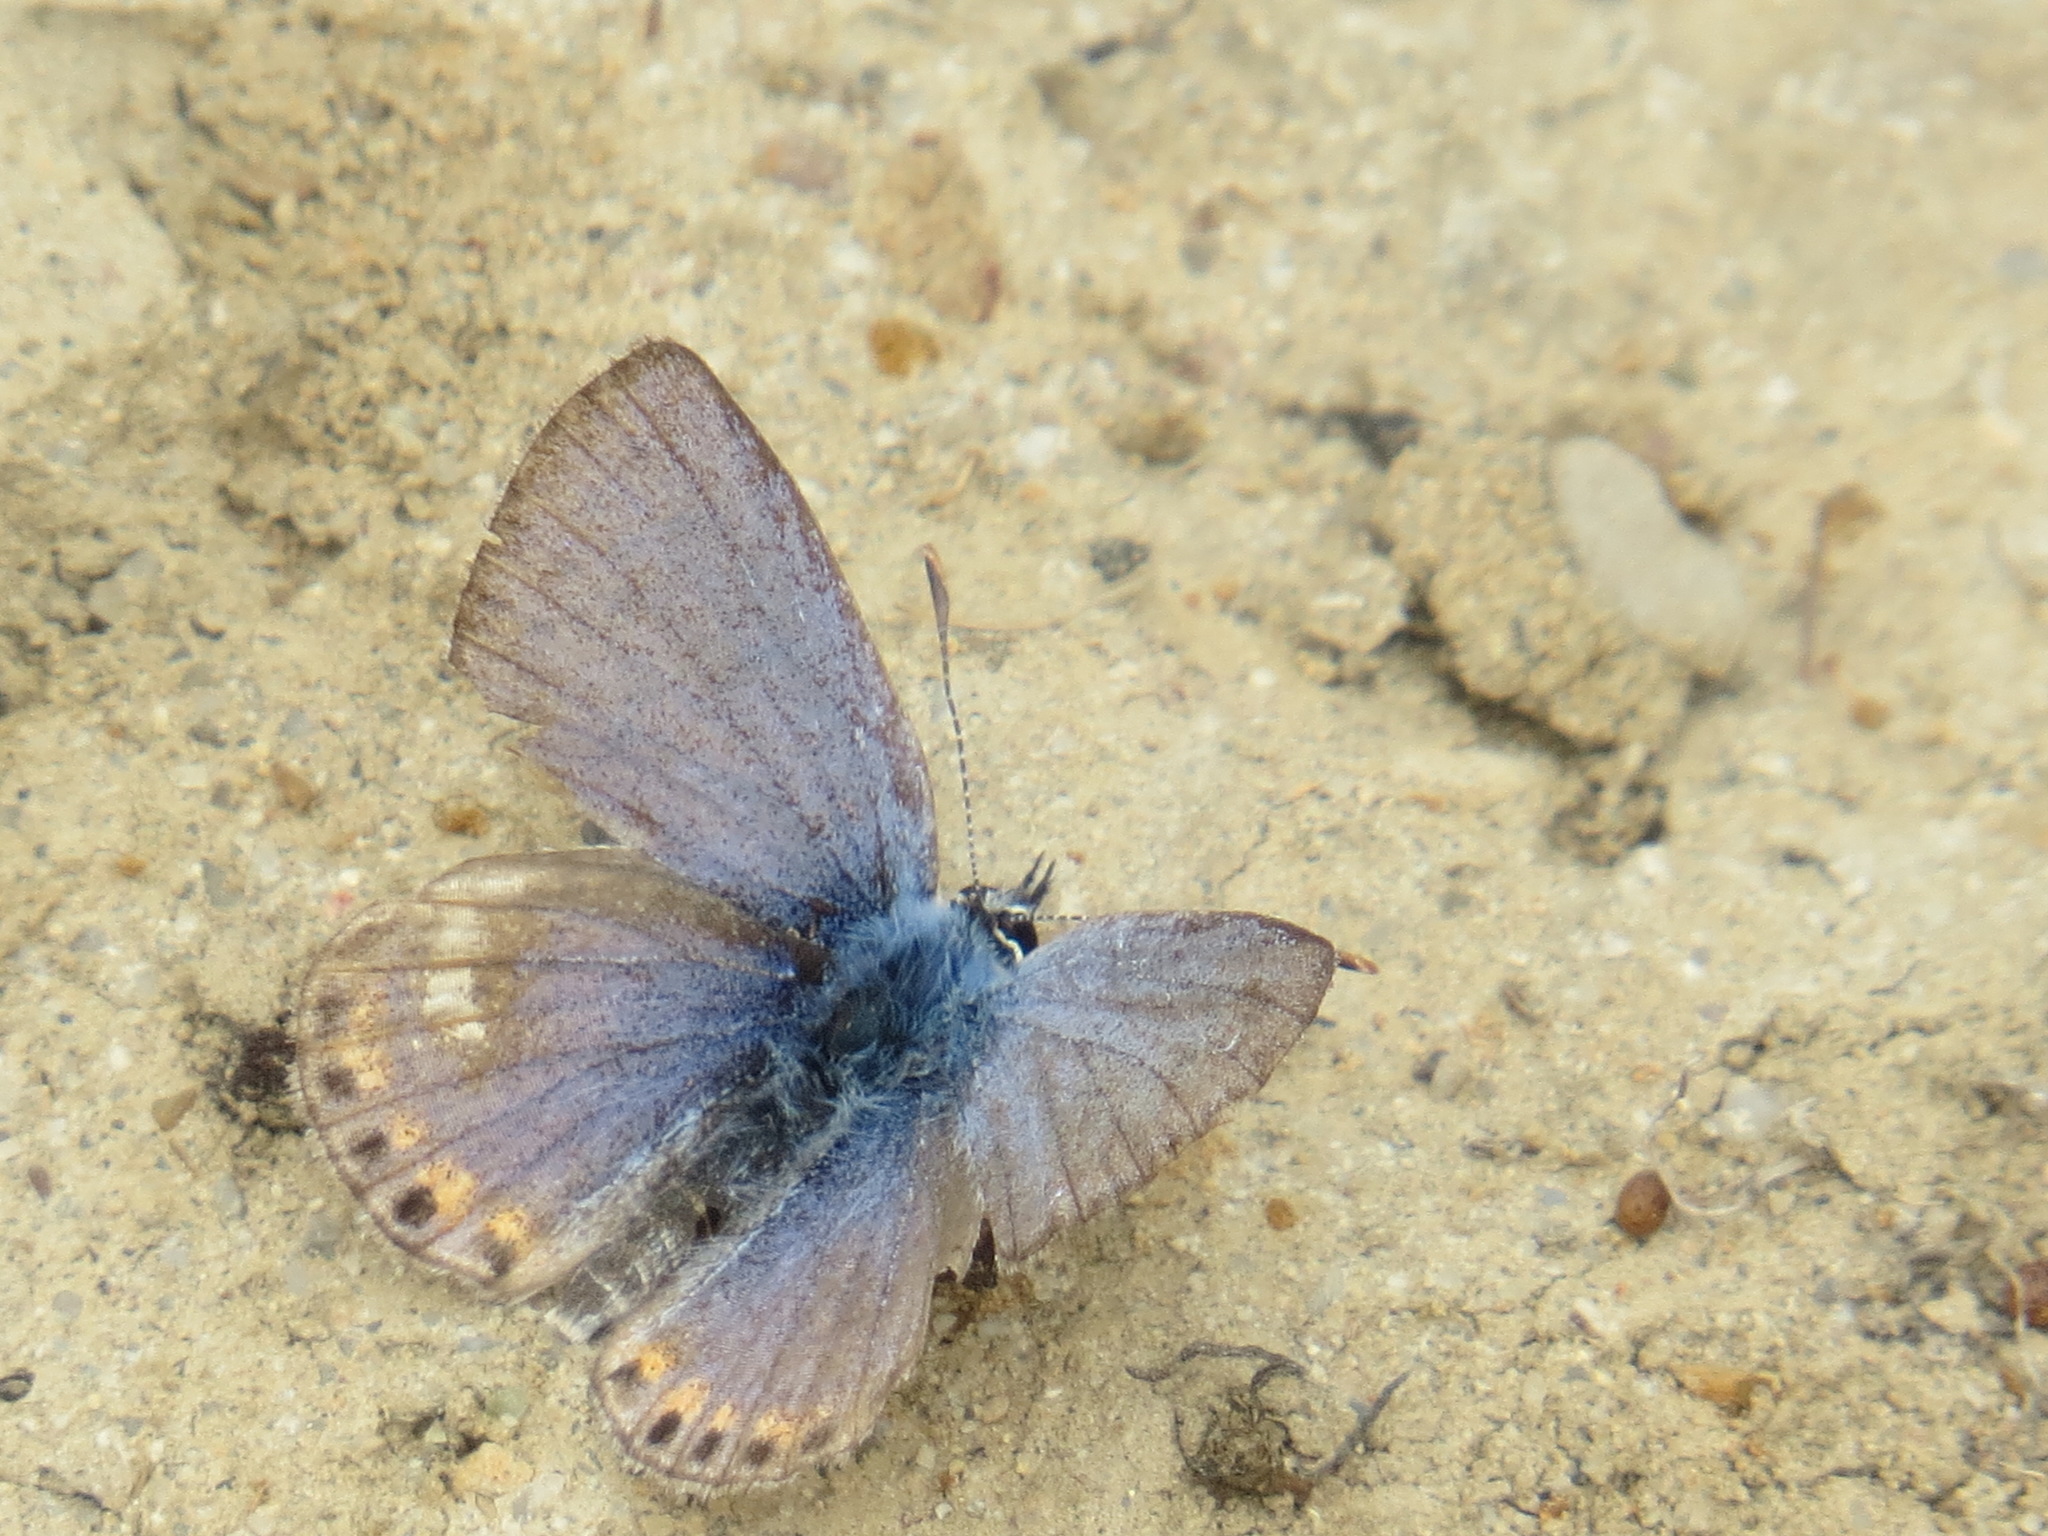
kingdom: Animalia
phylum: Arthropoda
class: Insecta
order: Lepidoptera
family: Lycaenidae
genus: Icaricia
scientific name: Icaricia acmon
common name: Acmon blue
